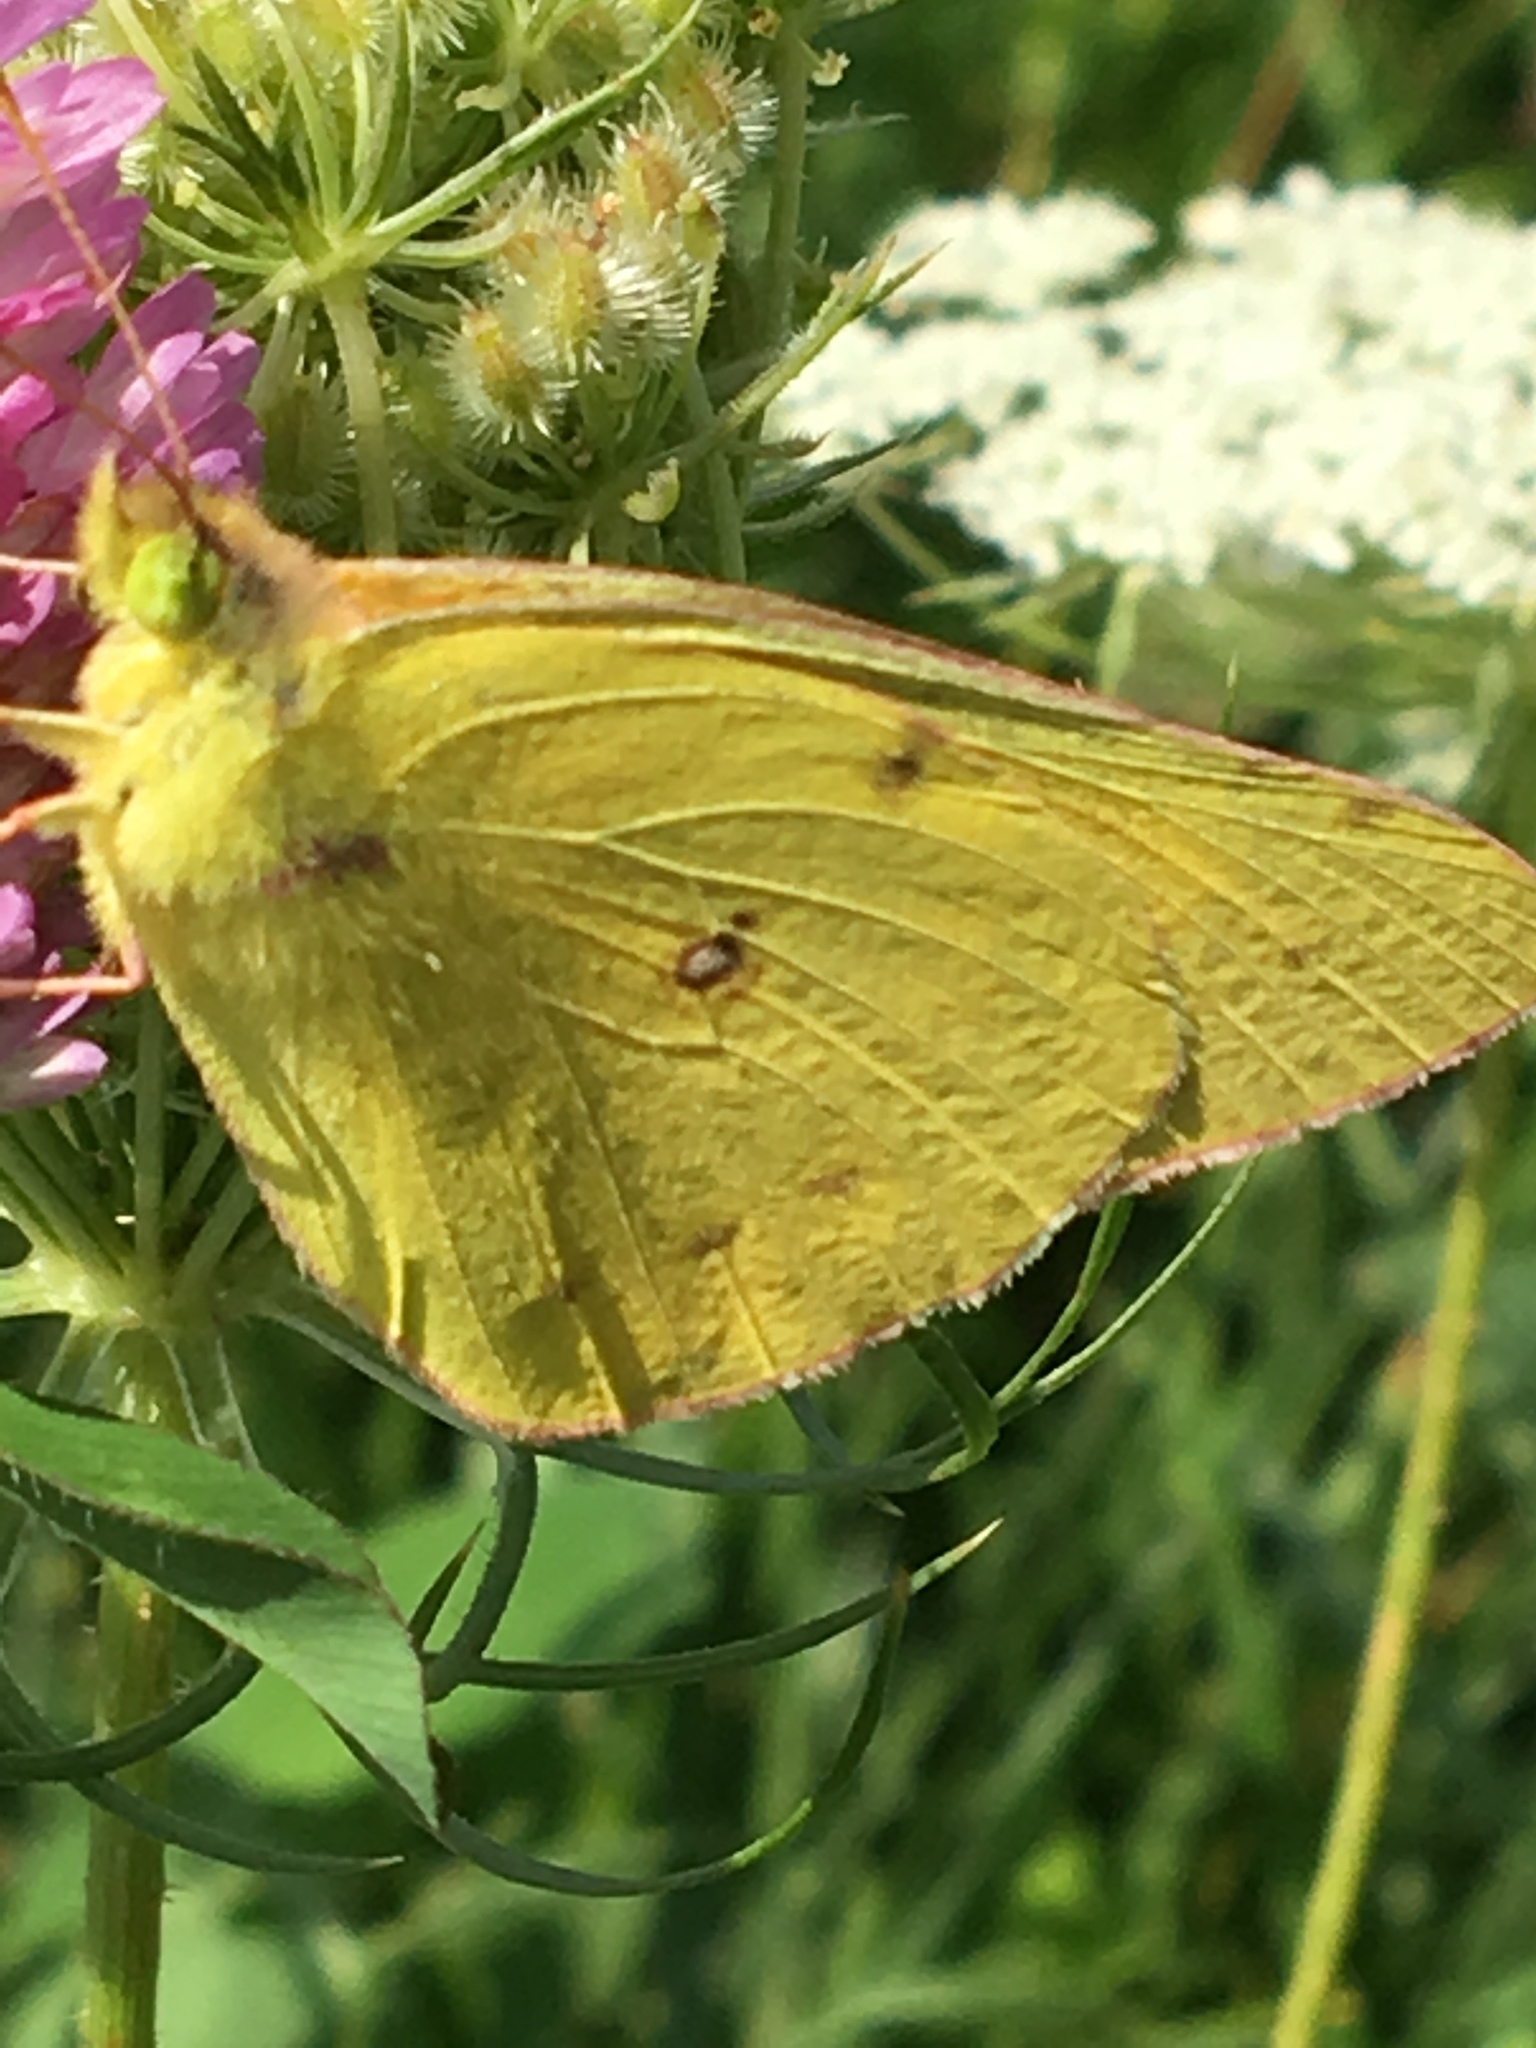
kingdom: Animalia
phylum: Arthropoda
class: Insecta
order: Lepidoptera
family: Pieridae
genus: Colias
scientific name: Colias eurytheme
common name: Alfalfa butterfly
